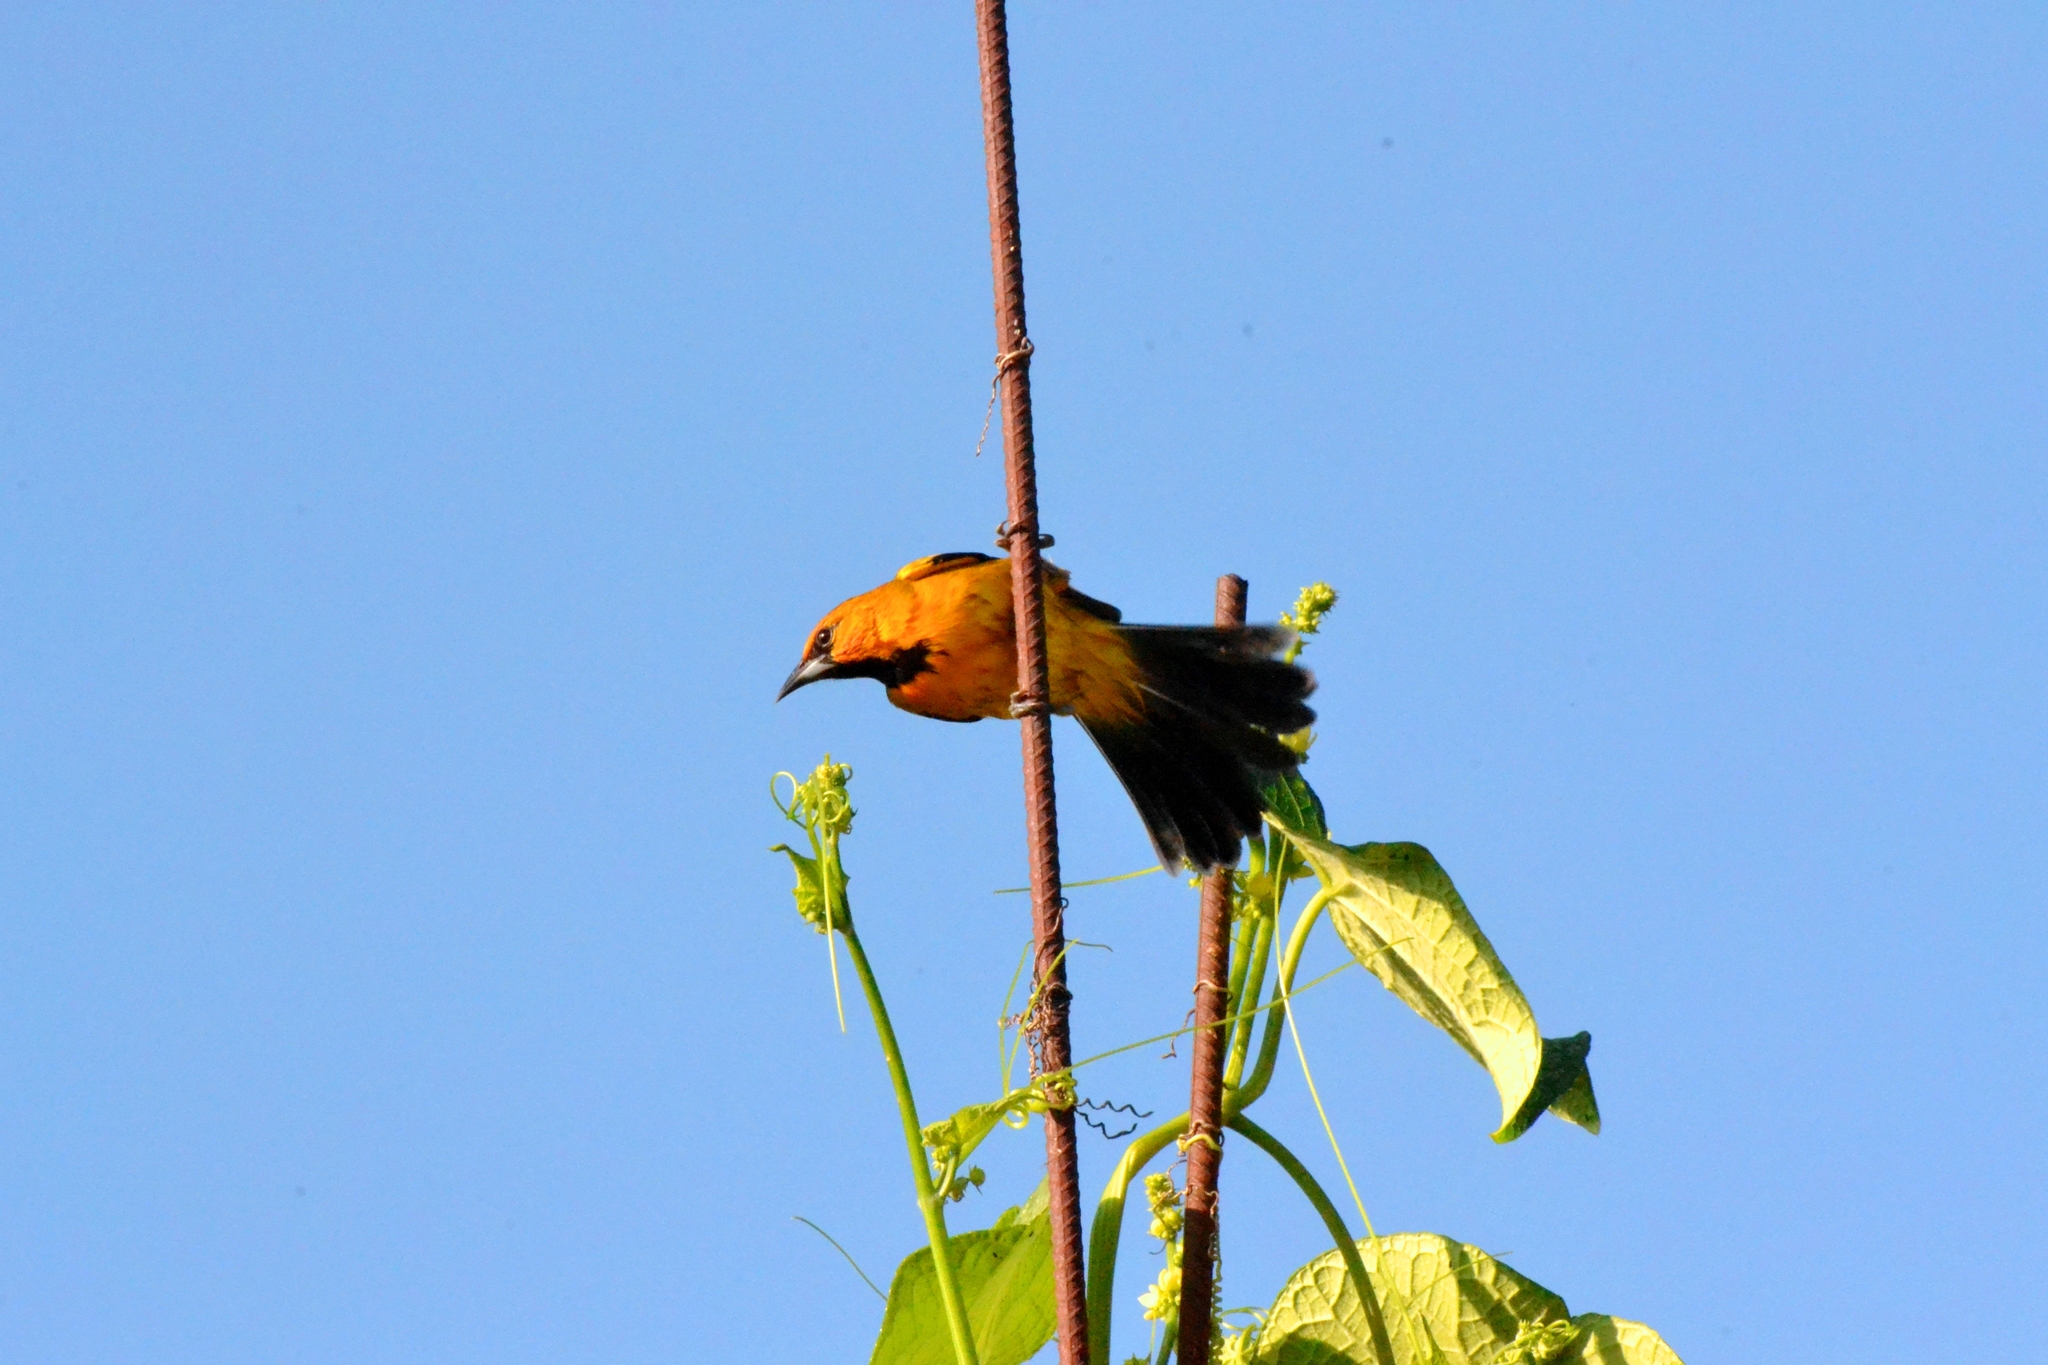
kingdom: Animalia
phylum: Chordata
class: Aves
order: Passeriformes
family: Icteridae
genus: Icterus
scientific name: Icterus gularis
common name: Altamira oriole
